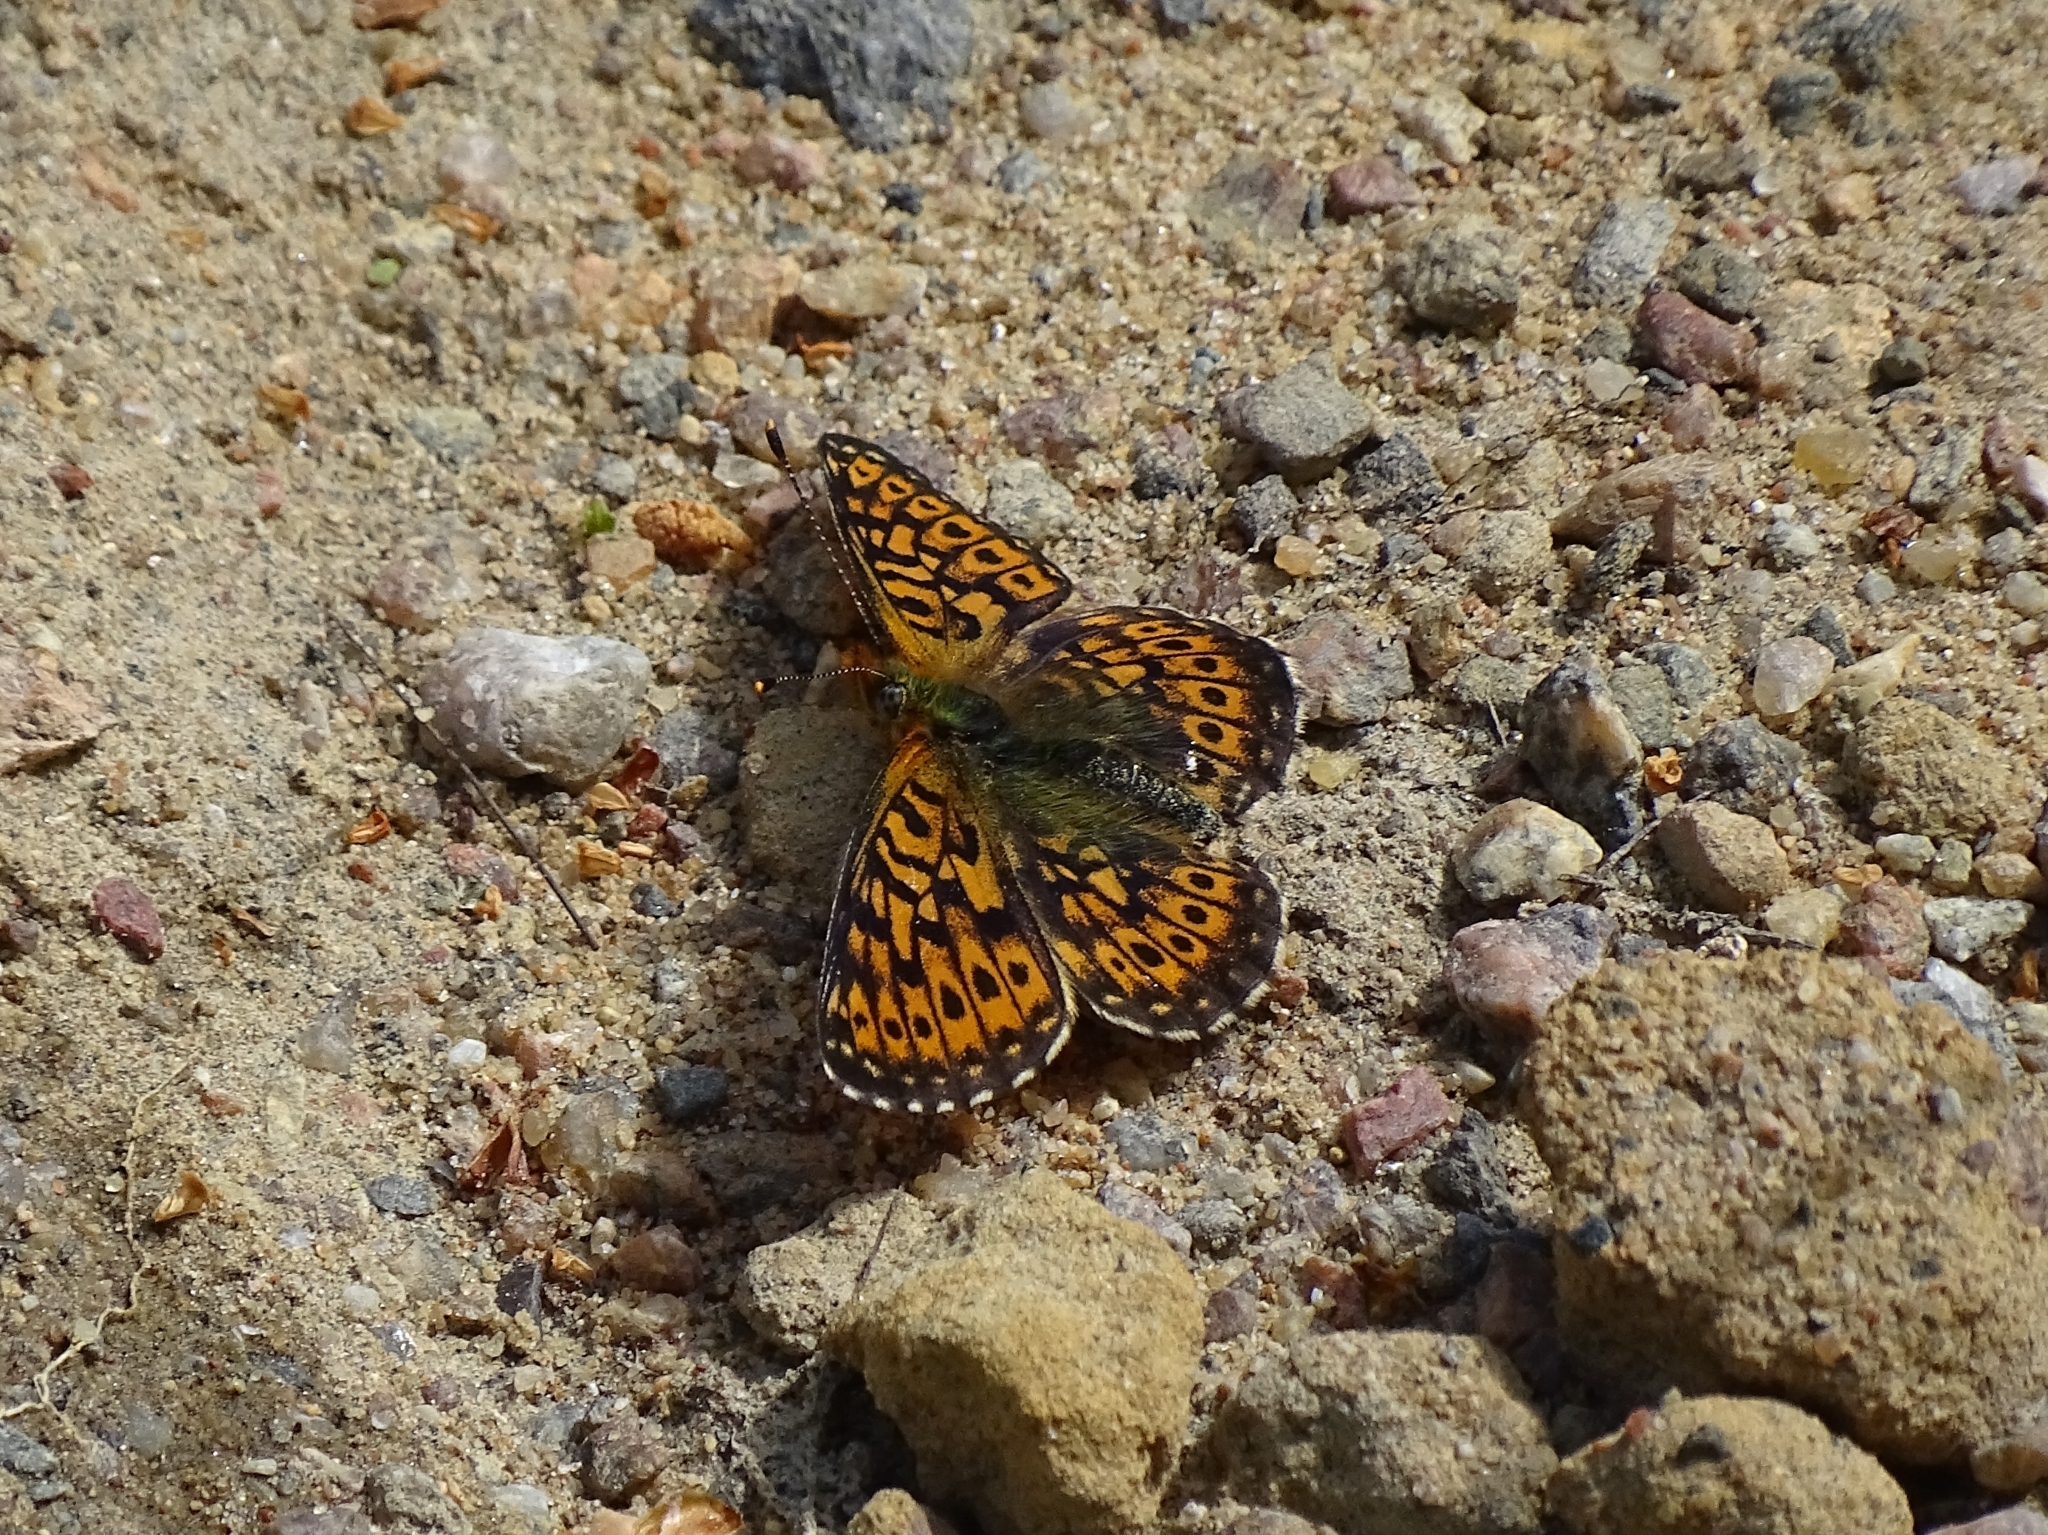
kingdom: Animalia
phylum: Arthropoda
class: Insecta
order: Lepidoptera
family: Nymphalidae
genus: Clossiana
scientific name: Clossiana euphrosyne
